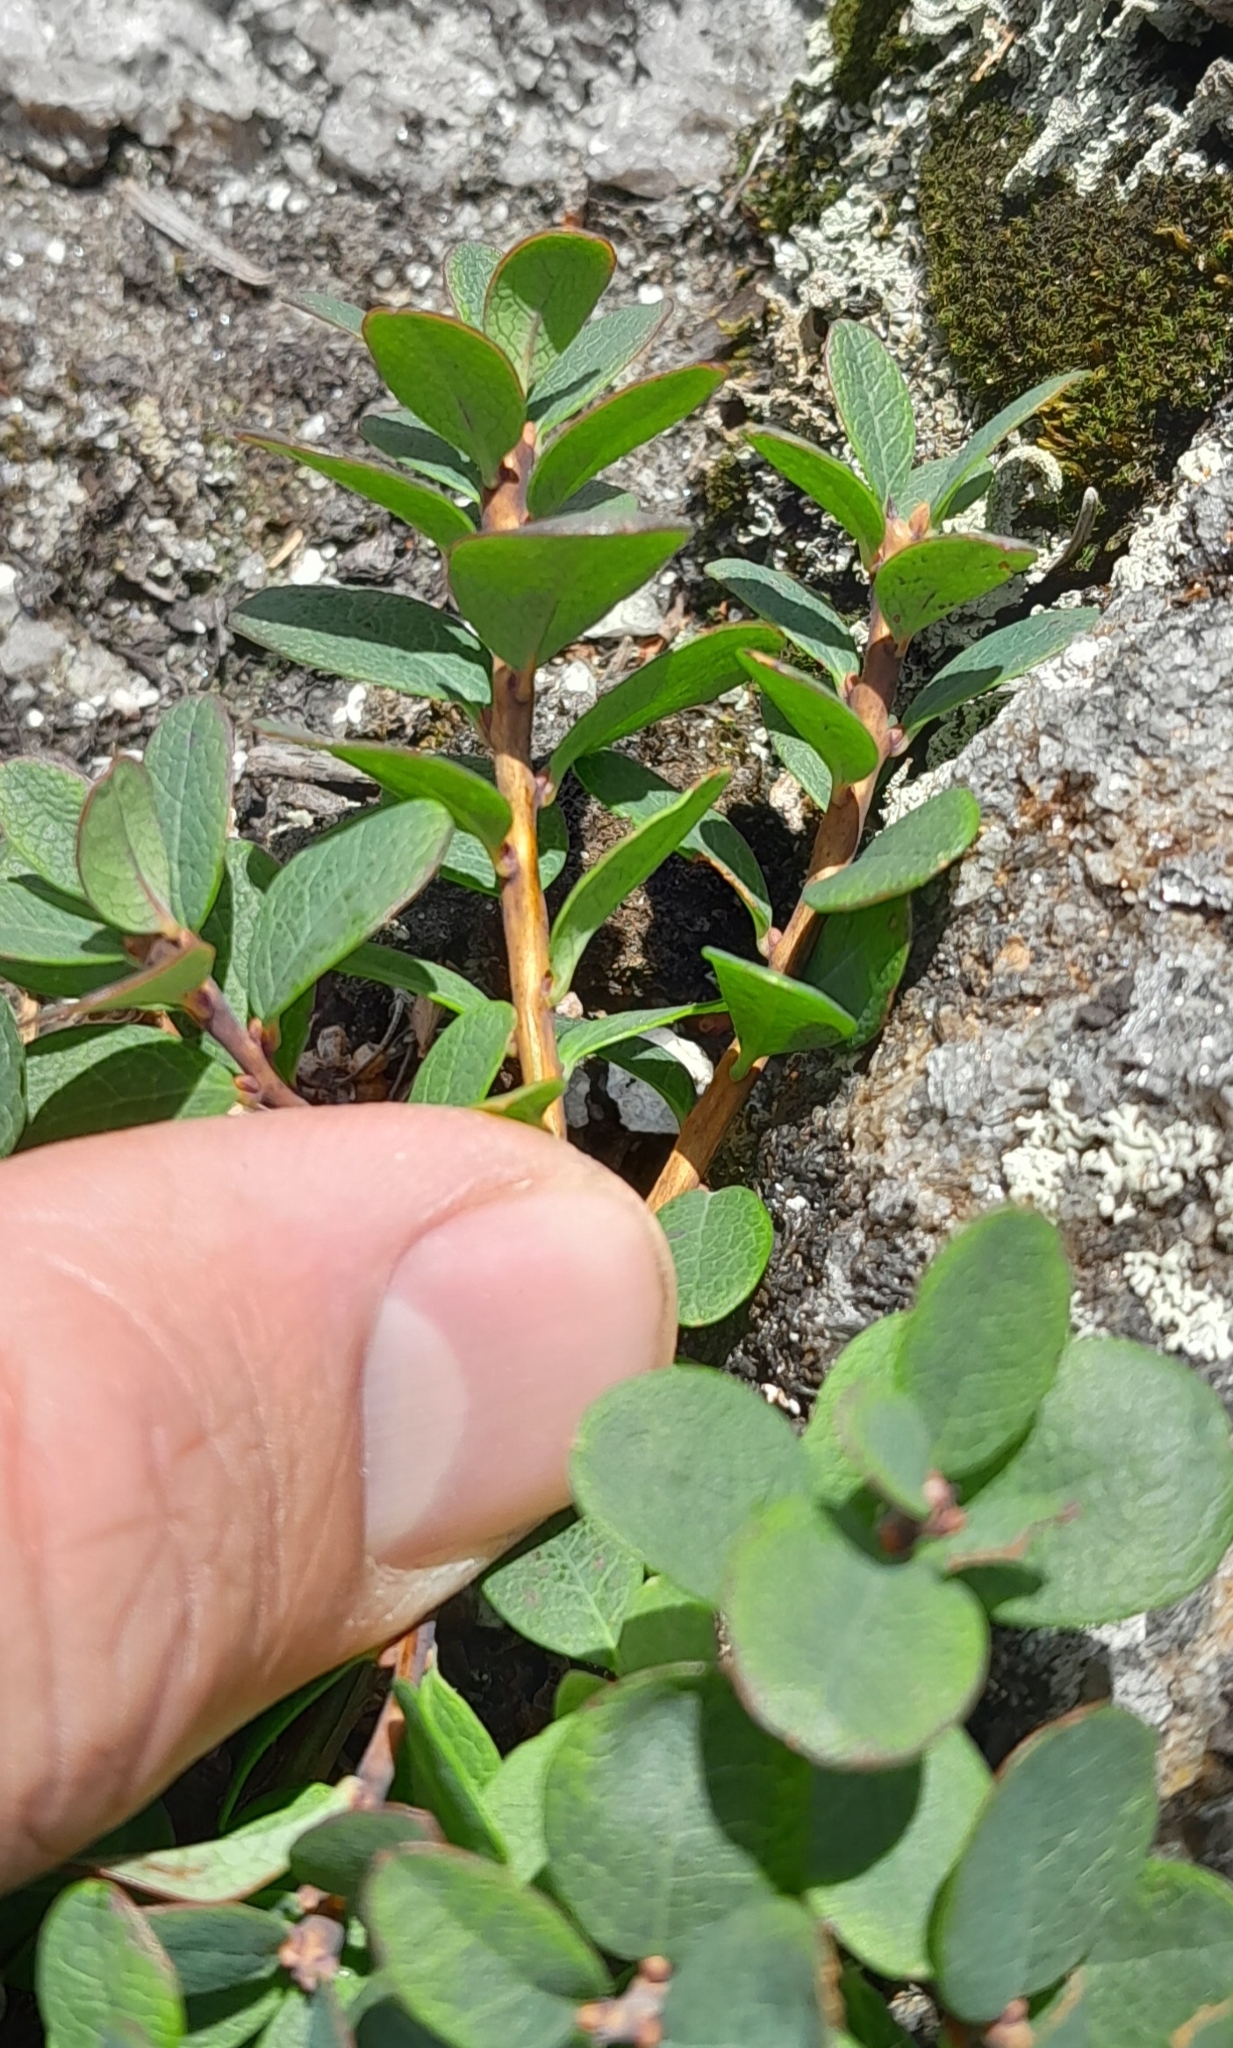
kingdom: Plantae
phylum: Tracheophyta
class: Magnoliopsida
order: Ericales
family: Ericaceae
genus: Vaccinium
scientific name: Vaccinium uliginosum
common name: Bog bilberry
